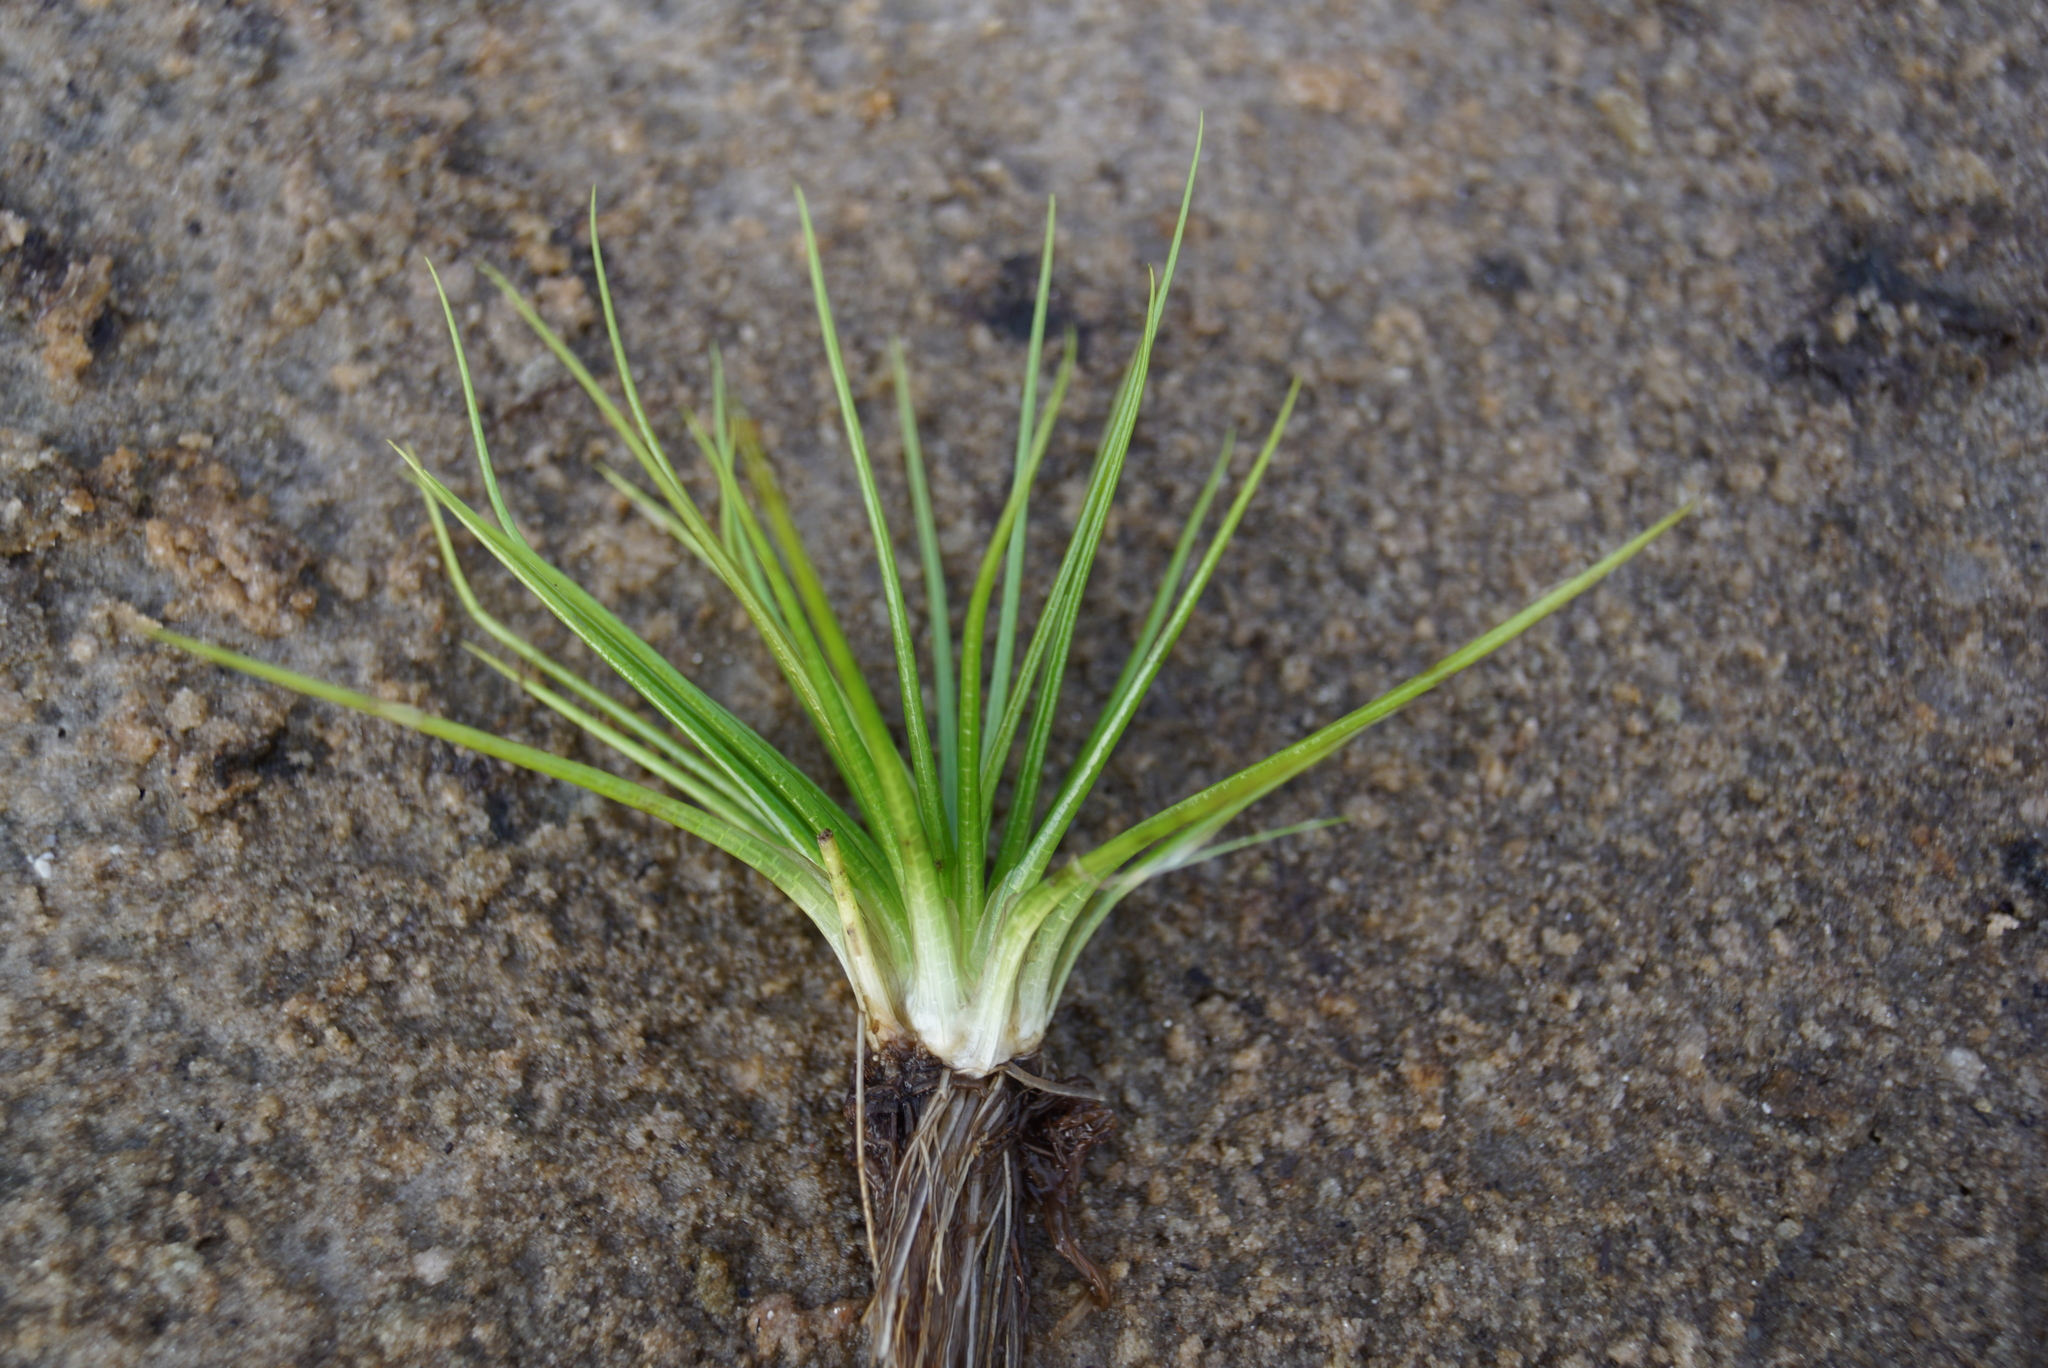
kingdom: Plantae
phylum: Tracheophyta
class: Lycopodiopsida
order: Isoetales
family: Isoetaceae
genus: Isoetes
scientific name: Isoetes echinospora
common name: Spring quillwort
